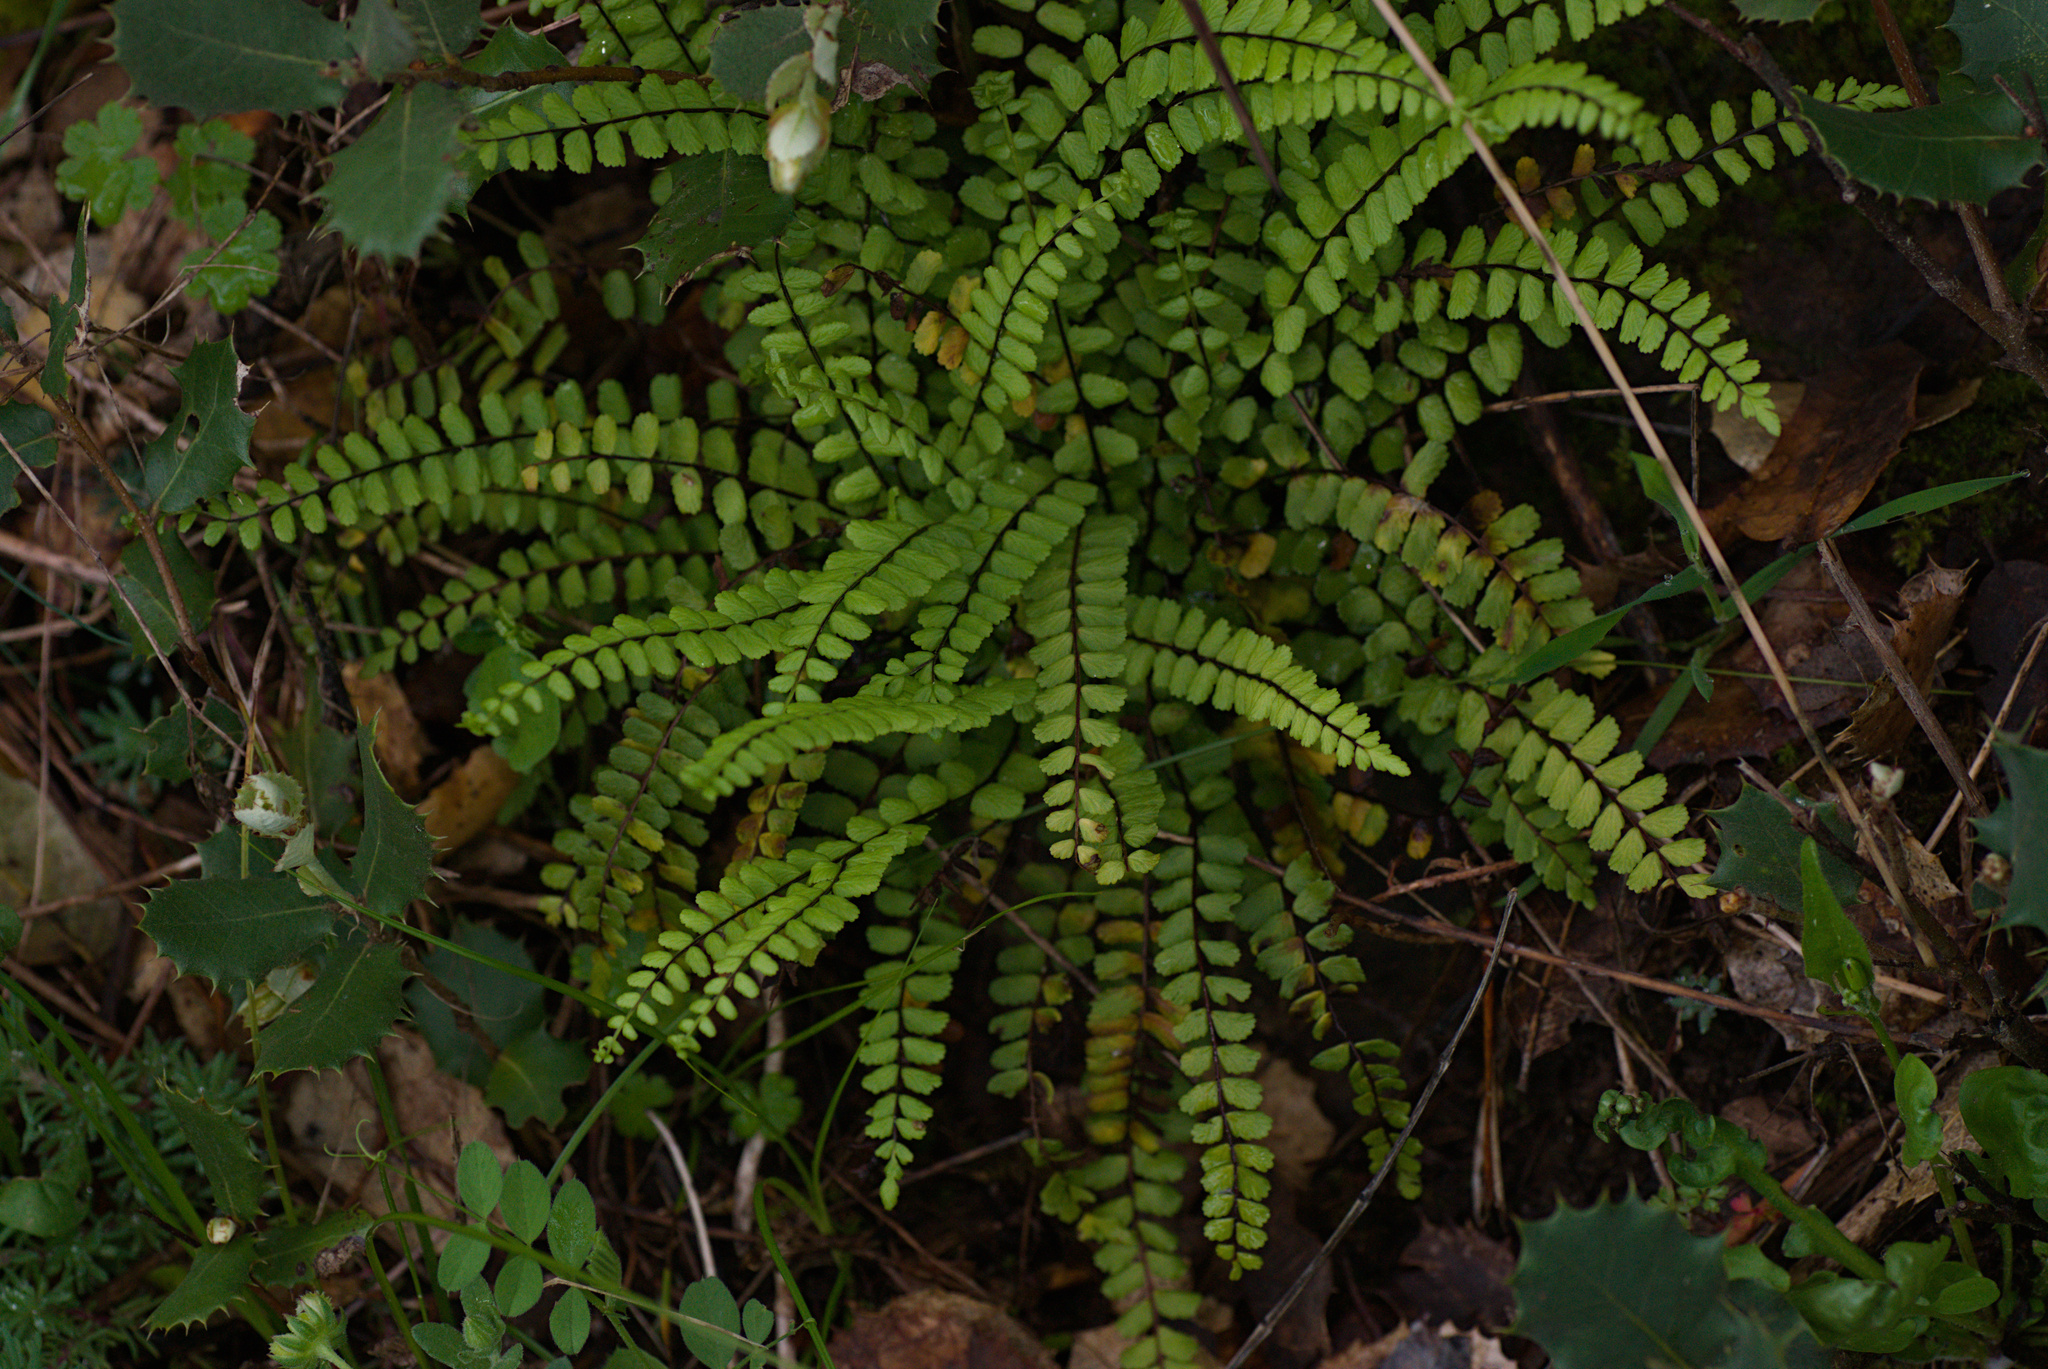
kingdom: Plantae
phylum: Tracheophyta
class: Polypodiopsida
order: Polypodiales
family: Aspleniaceae
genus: Asplenium
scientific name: Asplenium trichomanes
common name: Maidenhair spleenwort
